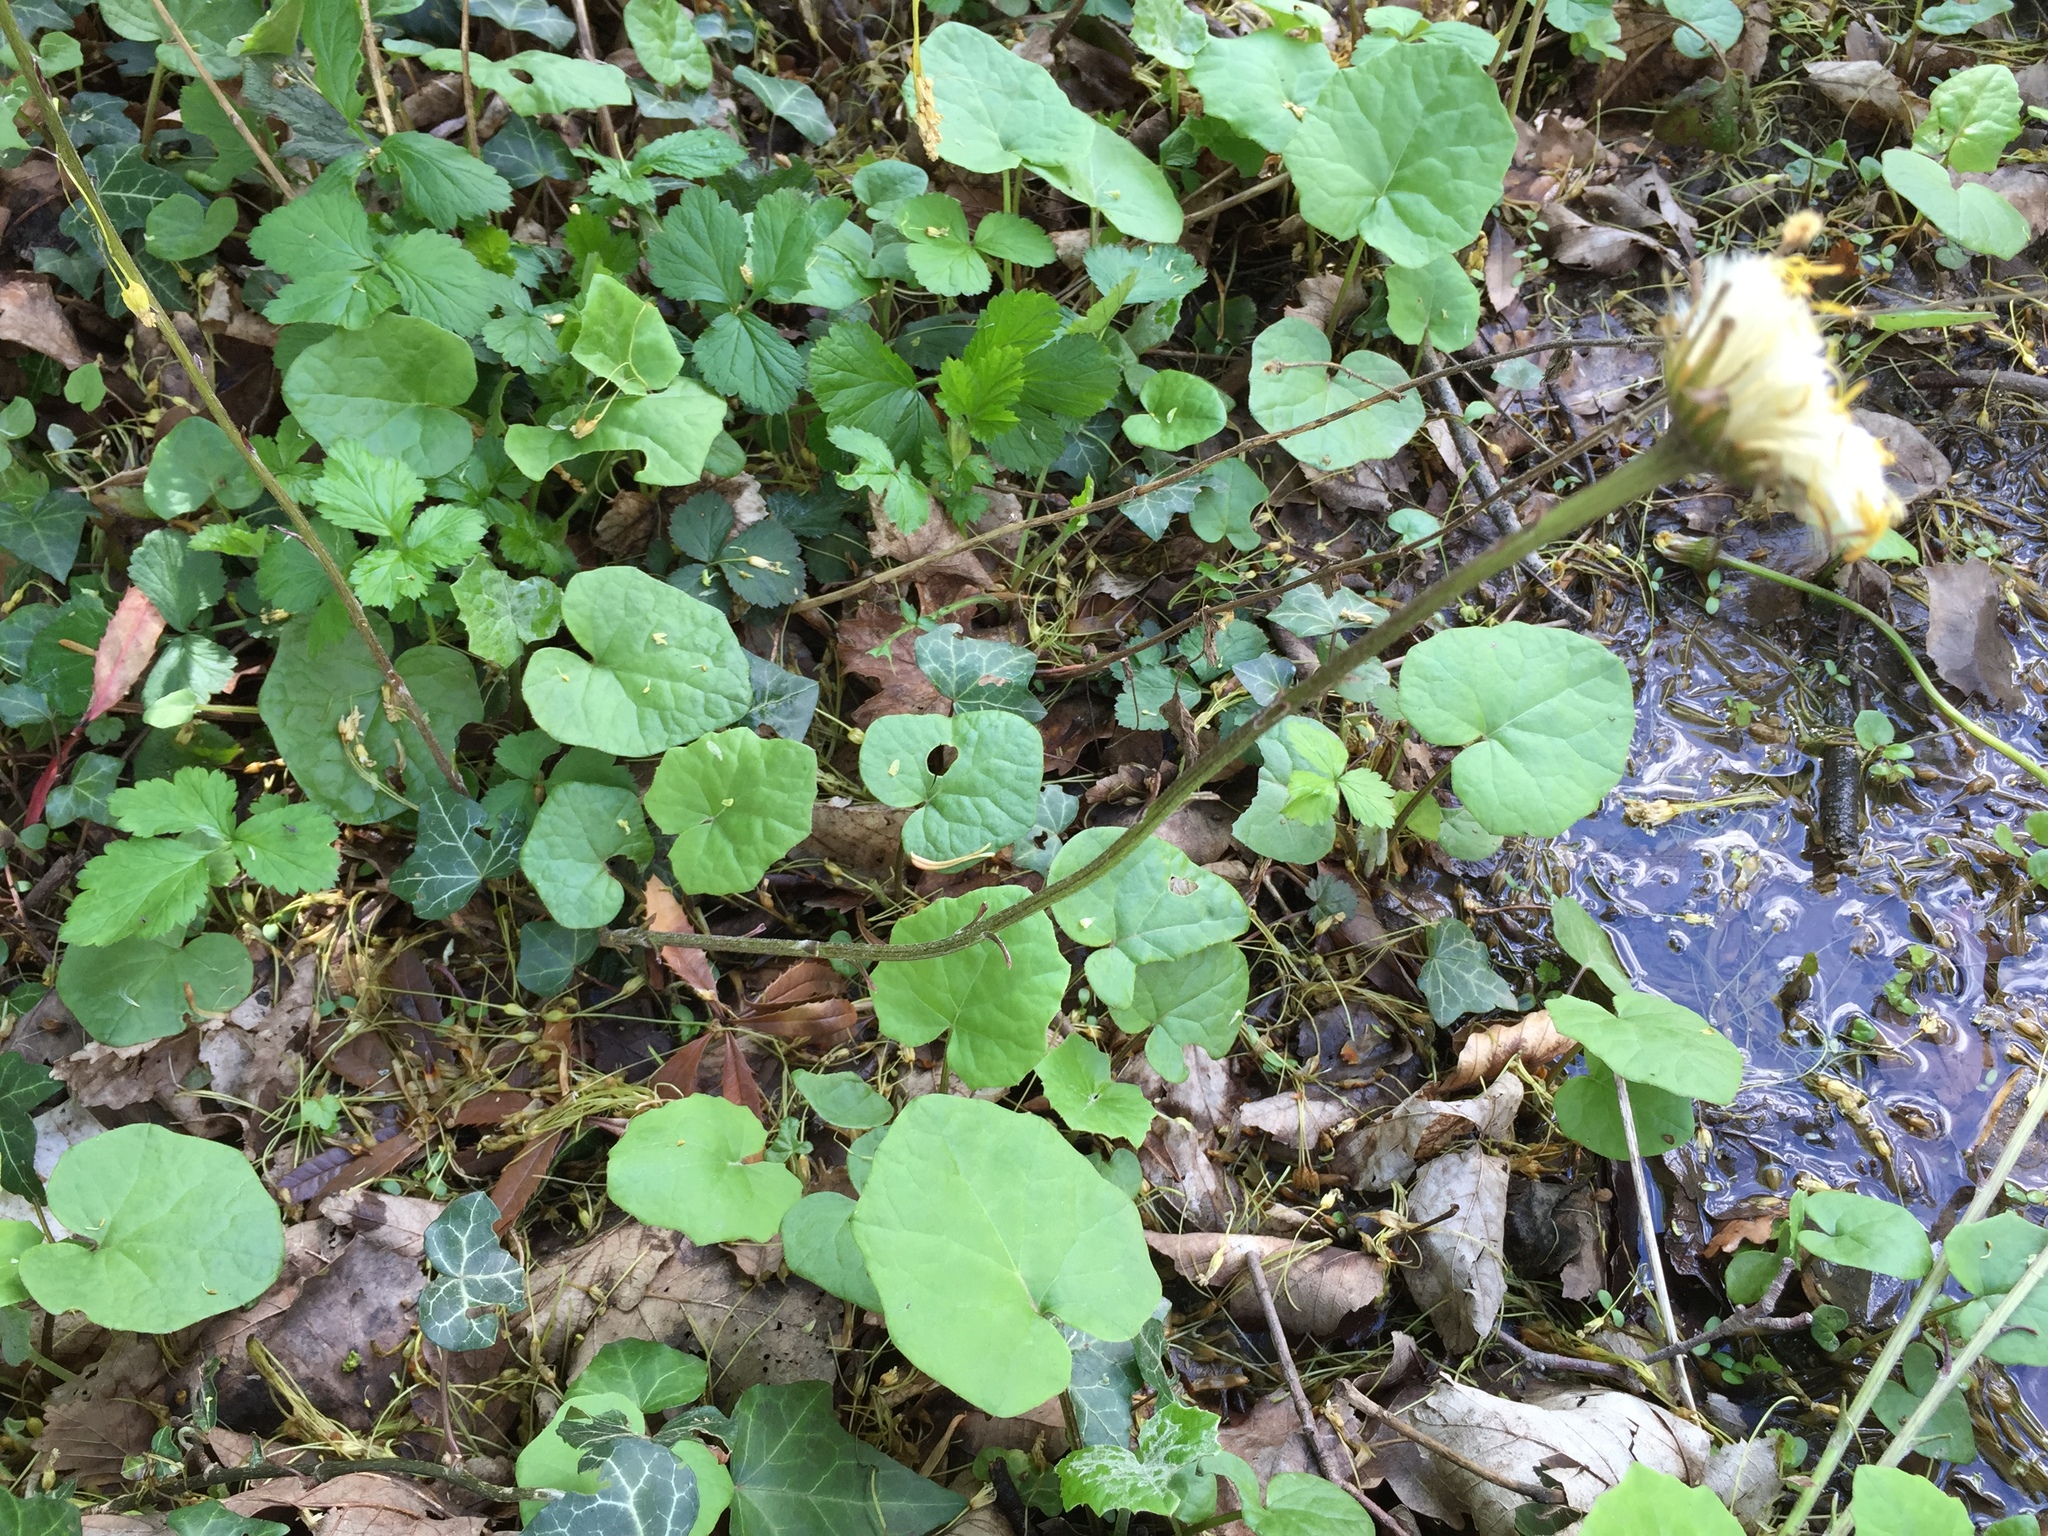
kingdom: Plantae
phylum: Tracheophyta
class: Magnoliopsida
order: Asterales
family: Asteraceae
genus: Tussilago
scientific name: Tussilago farfara
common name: Coltsfoot
